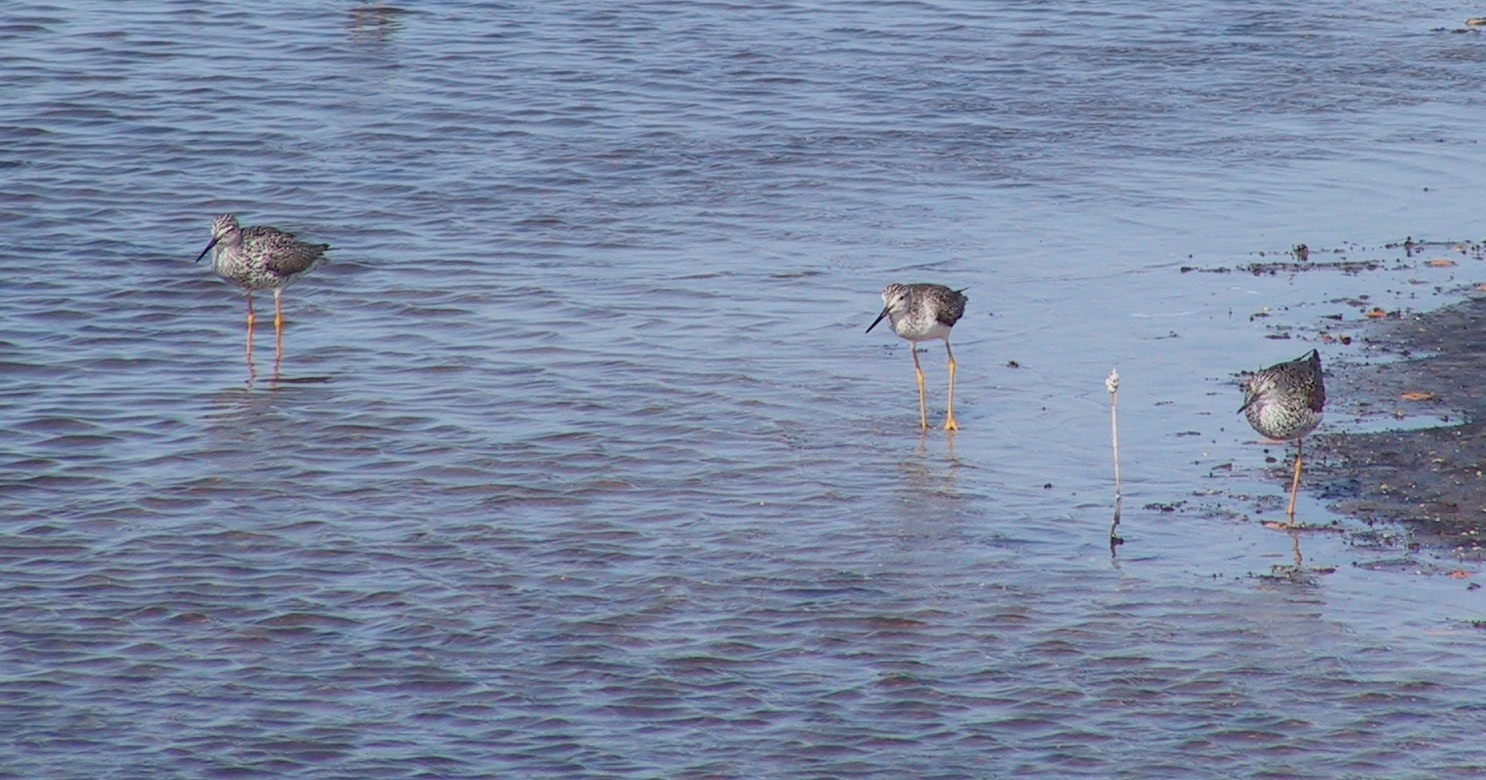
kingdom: Animalia
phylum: Chordata
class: Aves
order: Charadriiformes
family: Scolopacidae
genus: Tringa
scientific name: Tringa melanoleuca
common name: Greater yellowlegs
